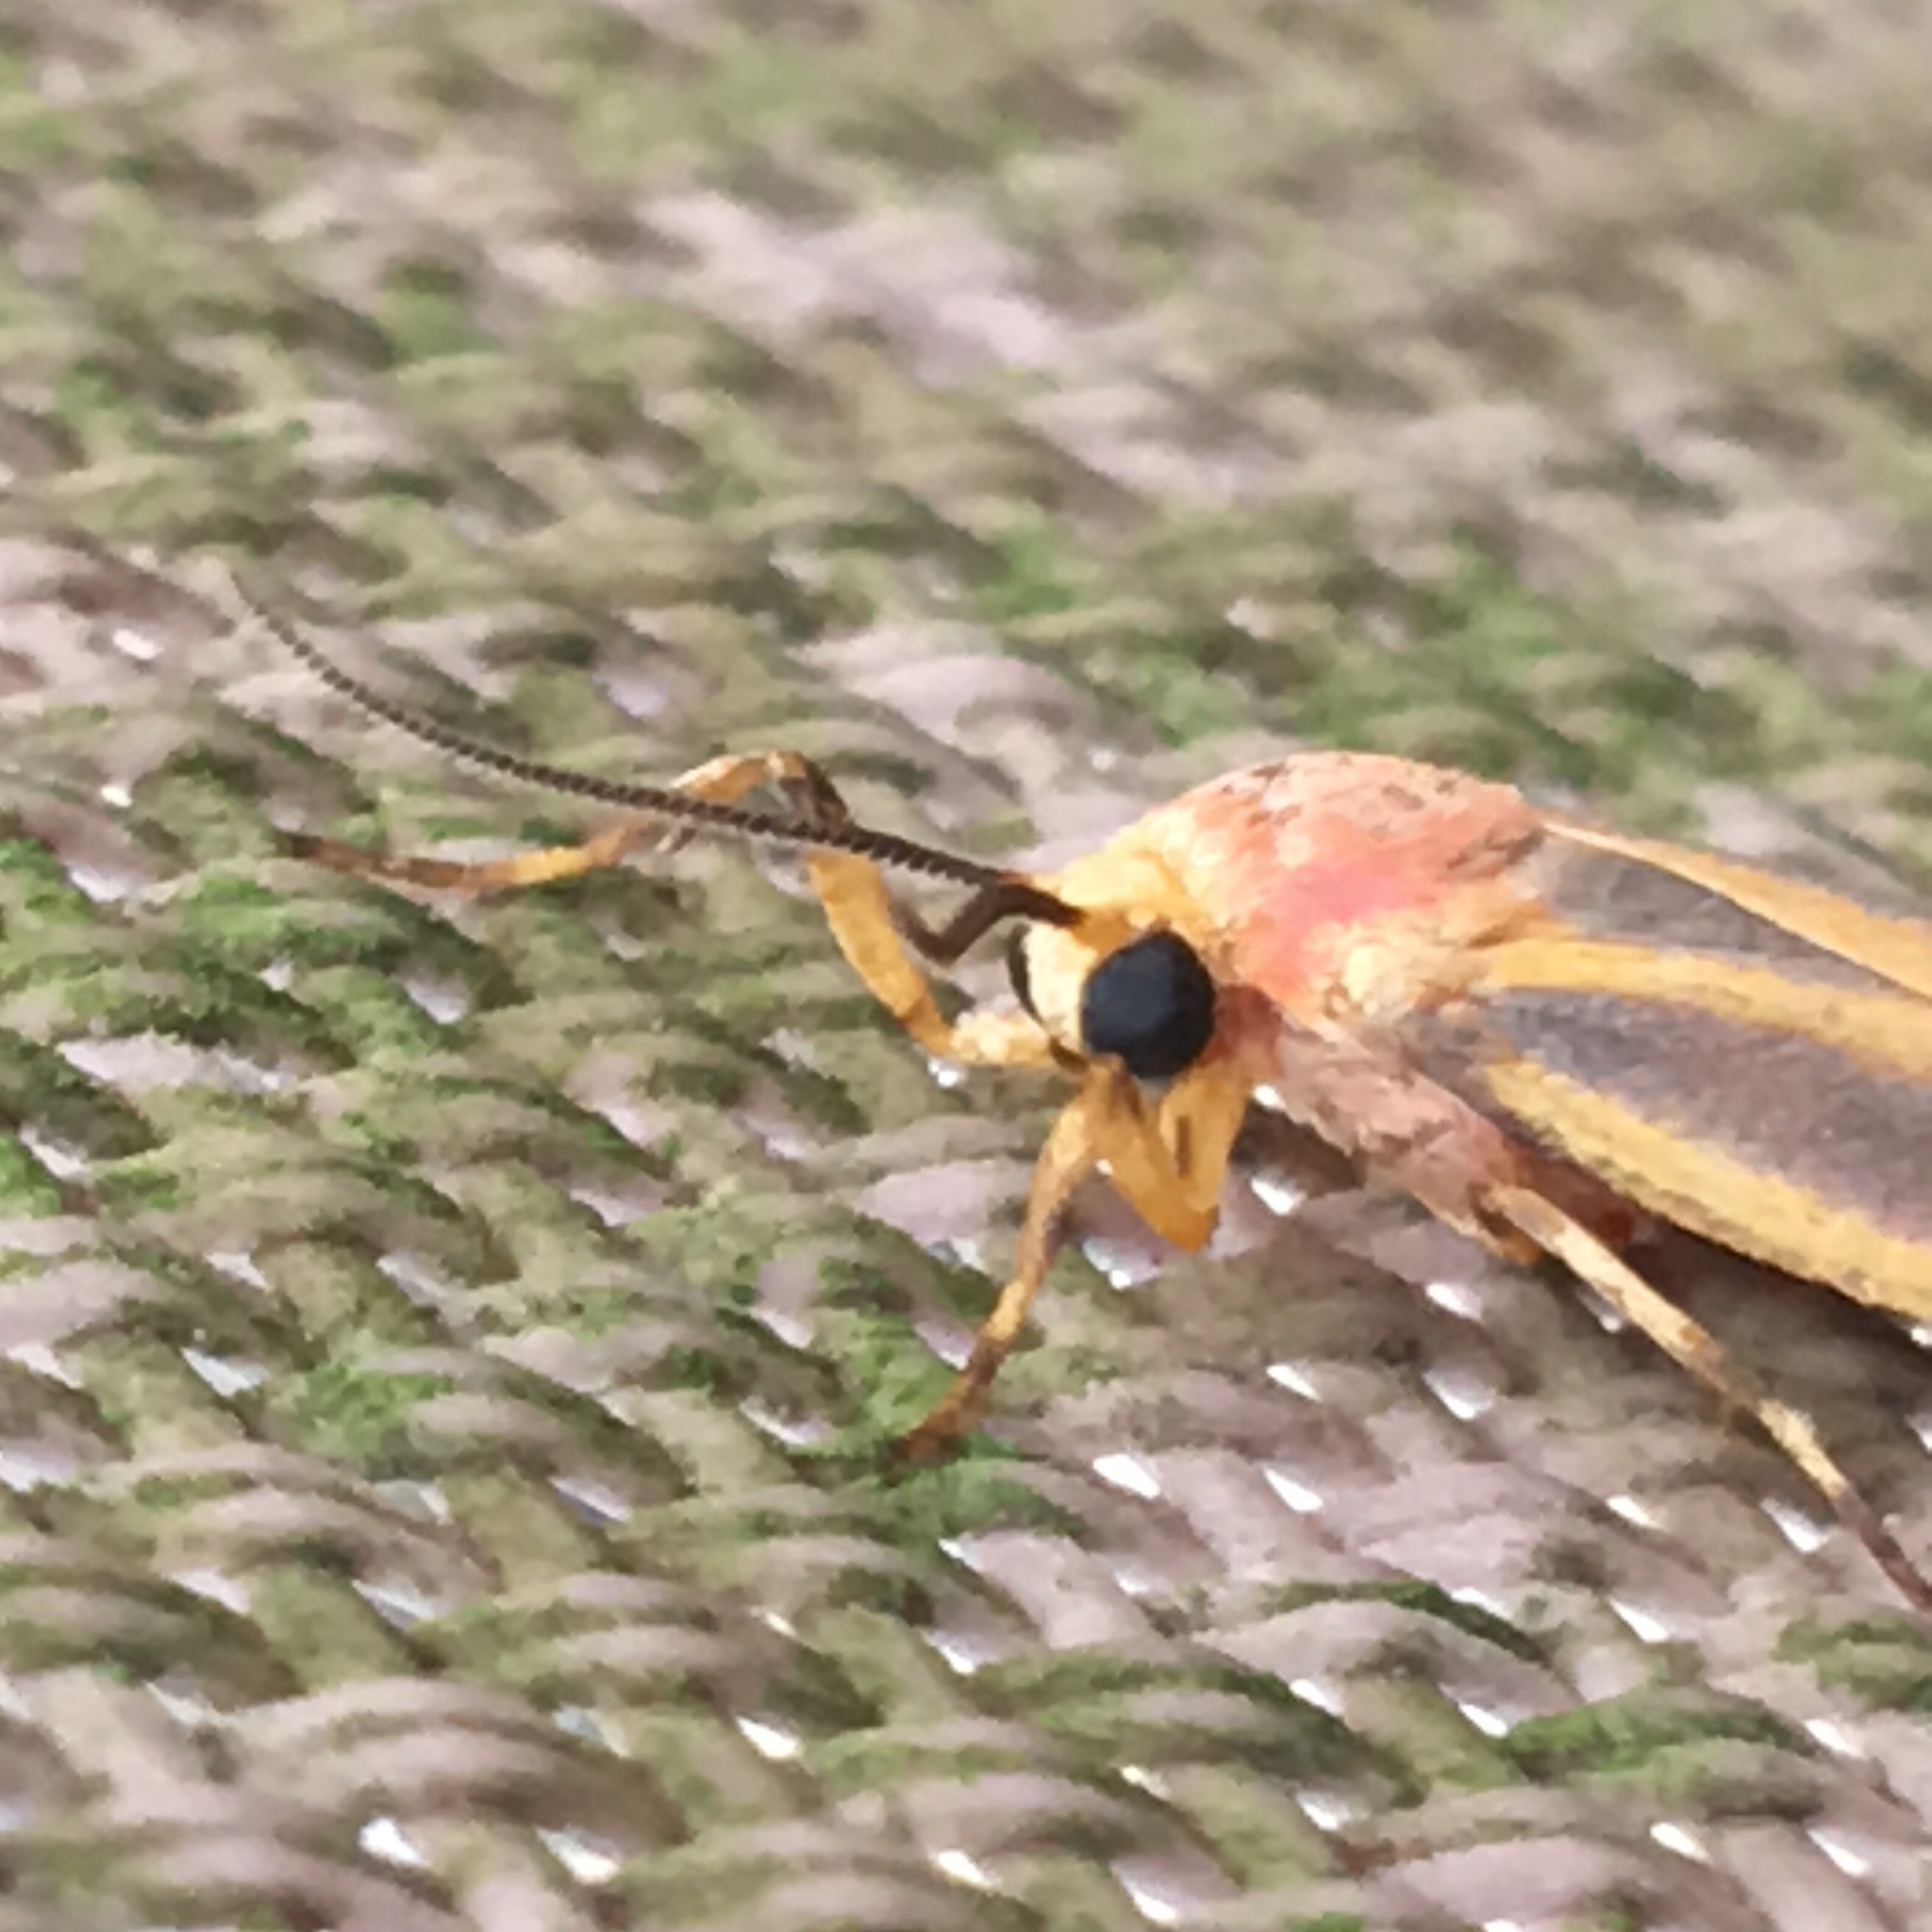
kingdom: Animalia
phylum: Arthropoda
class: Insecta
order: Lepidoptera
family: Erebidae
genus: Hypoprepia
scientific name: Hypoprepia fucosa
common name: Painted lichen moth
